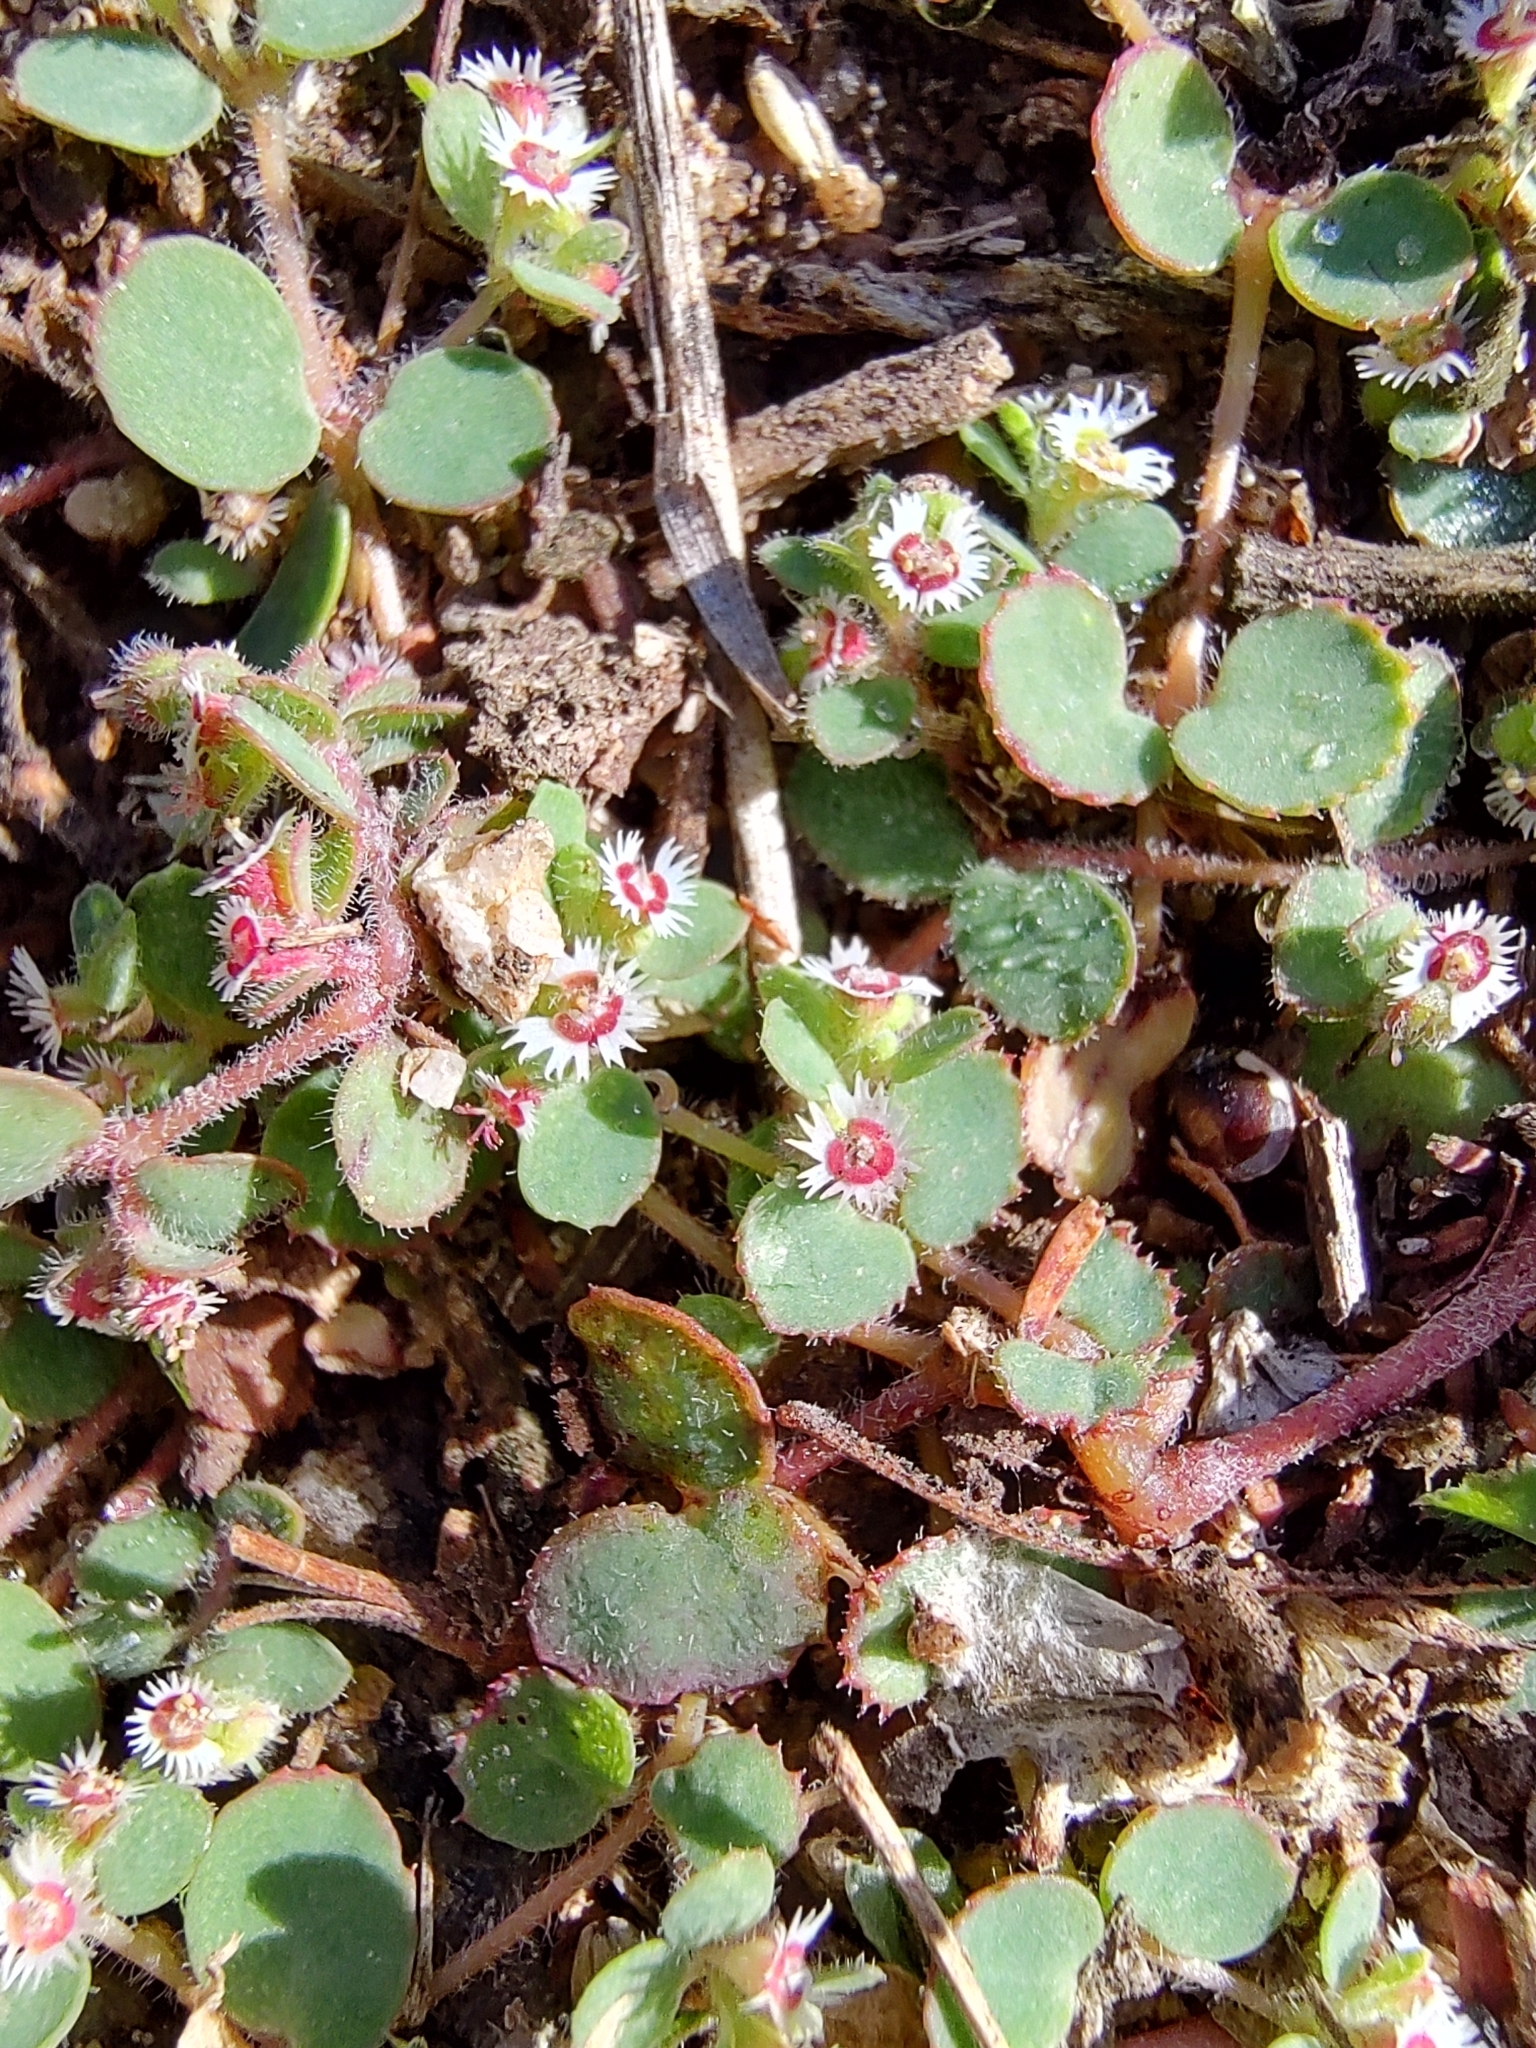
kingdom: Plantae
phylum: Tracheophyta
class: Magnoliopsida
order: Malpighiales
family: Euphorbiaceae
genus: Euphorbia
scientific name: Euphorbia dentosa
